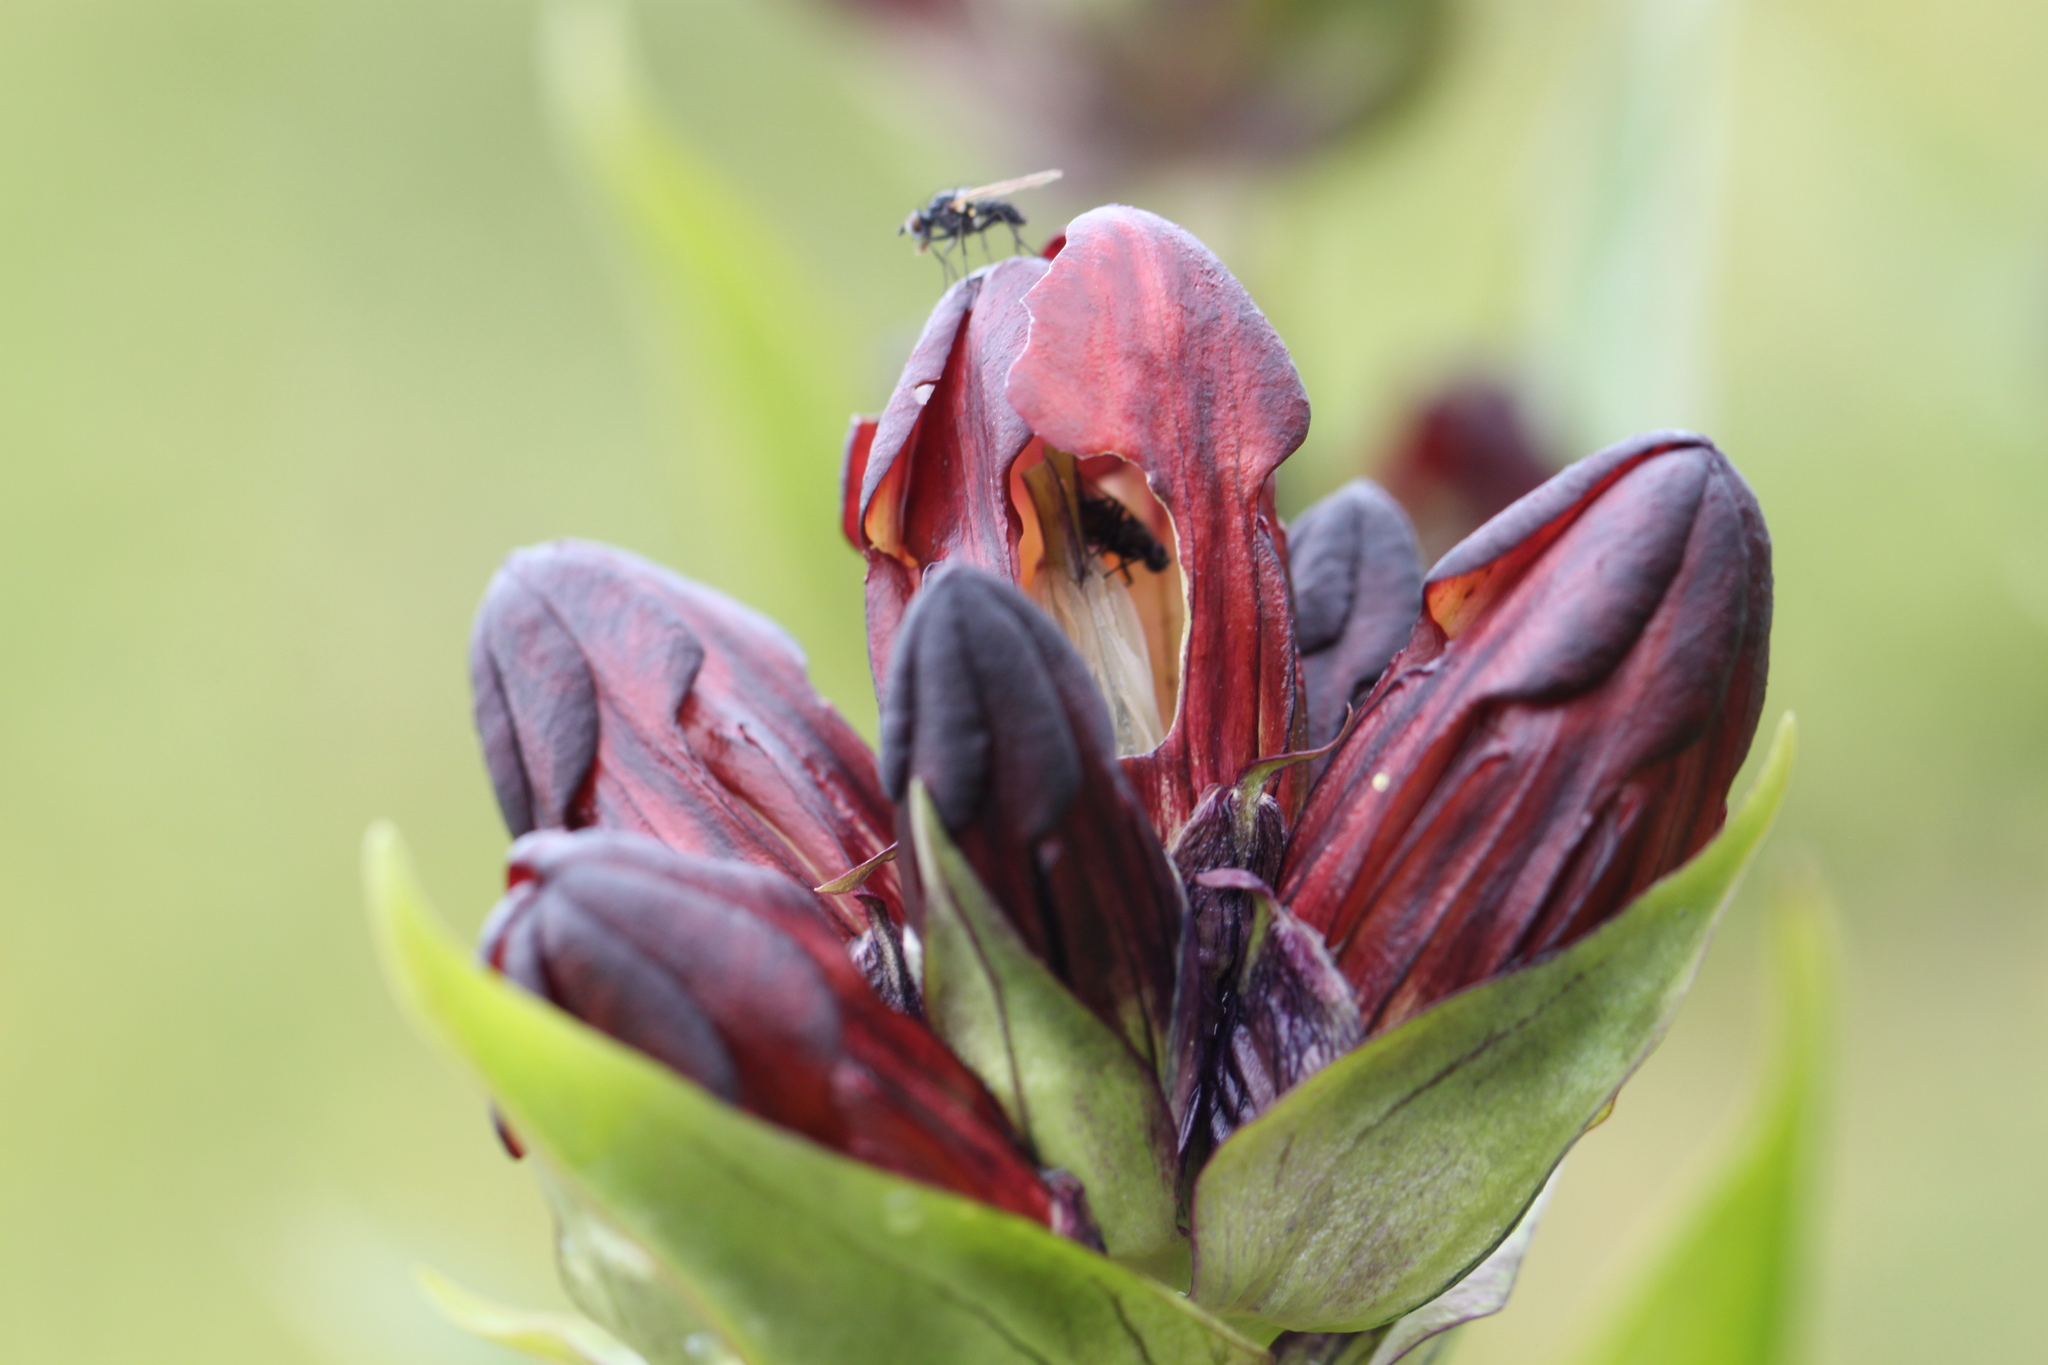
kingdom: Plantae
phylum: Tracheophyta
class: Magnoliopsida
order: Gentianales
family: Gentianaceae
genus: Gentiana
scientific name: Gentiana purpurea
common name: Purple gentian
